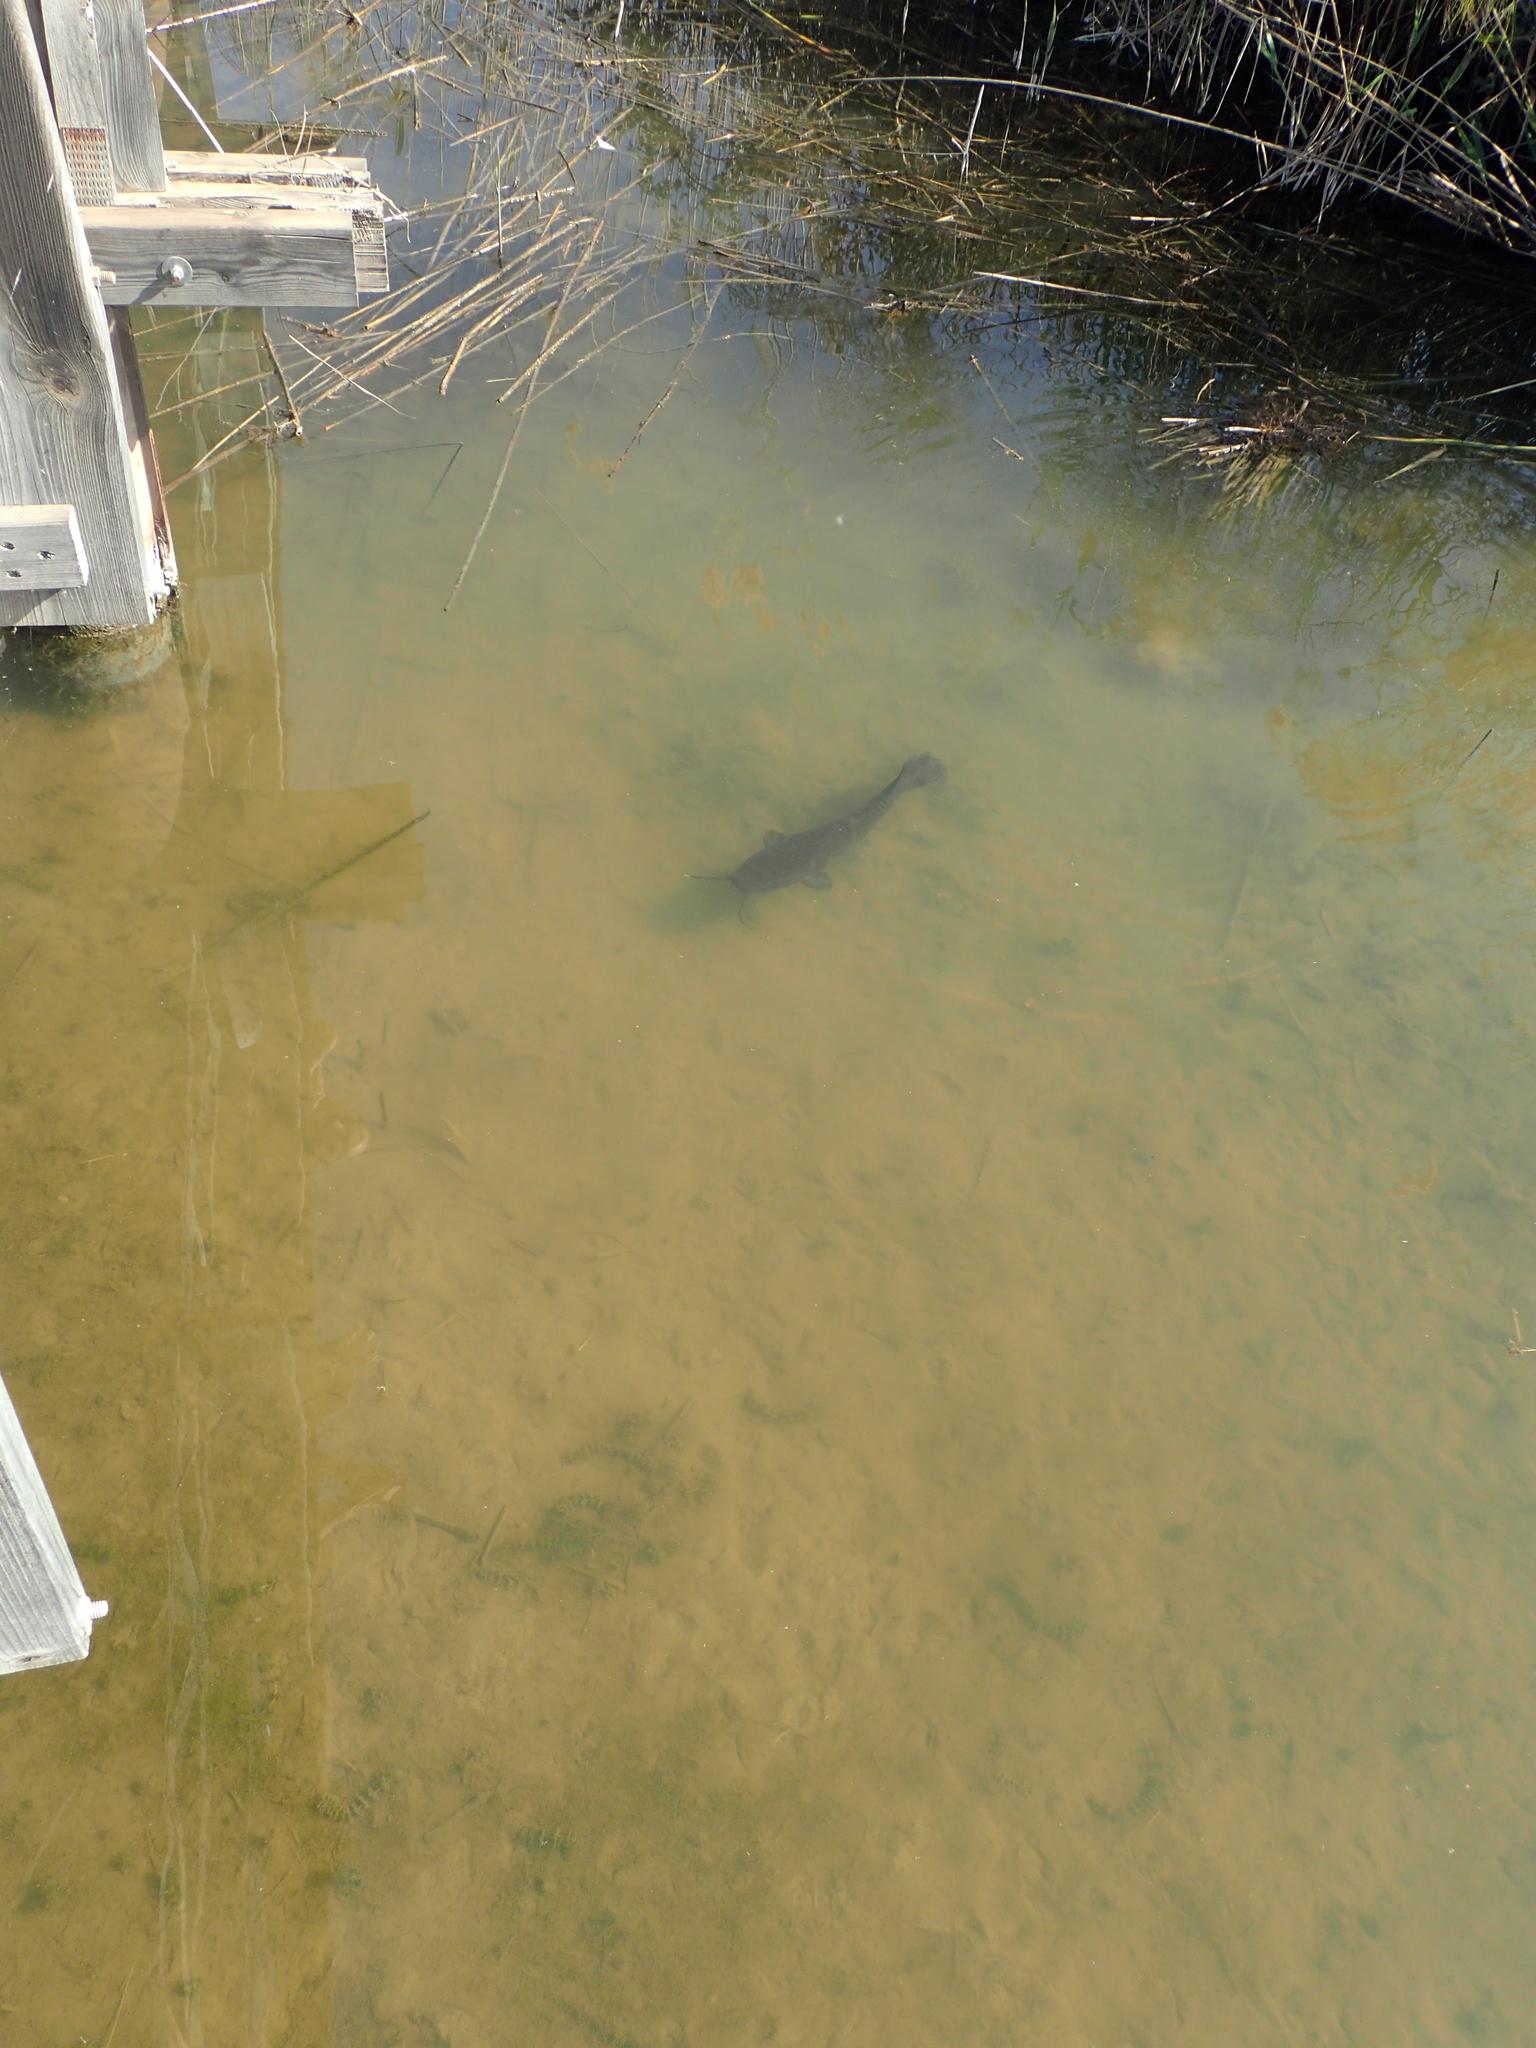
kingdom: Animalia
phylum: Chordata
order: Siluriformes
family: Clariidae
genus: Clarias
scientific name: Clarias gariepinus
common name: African catfish
